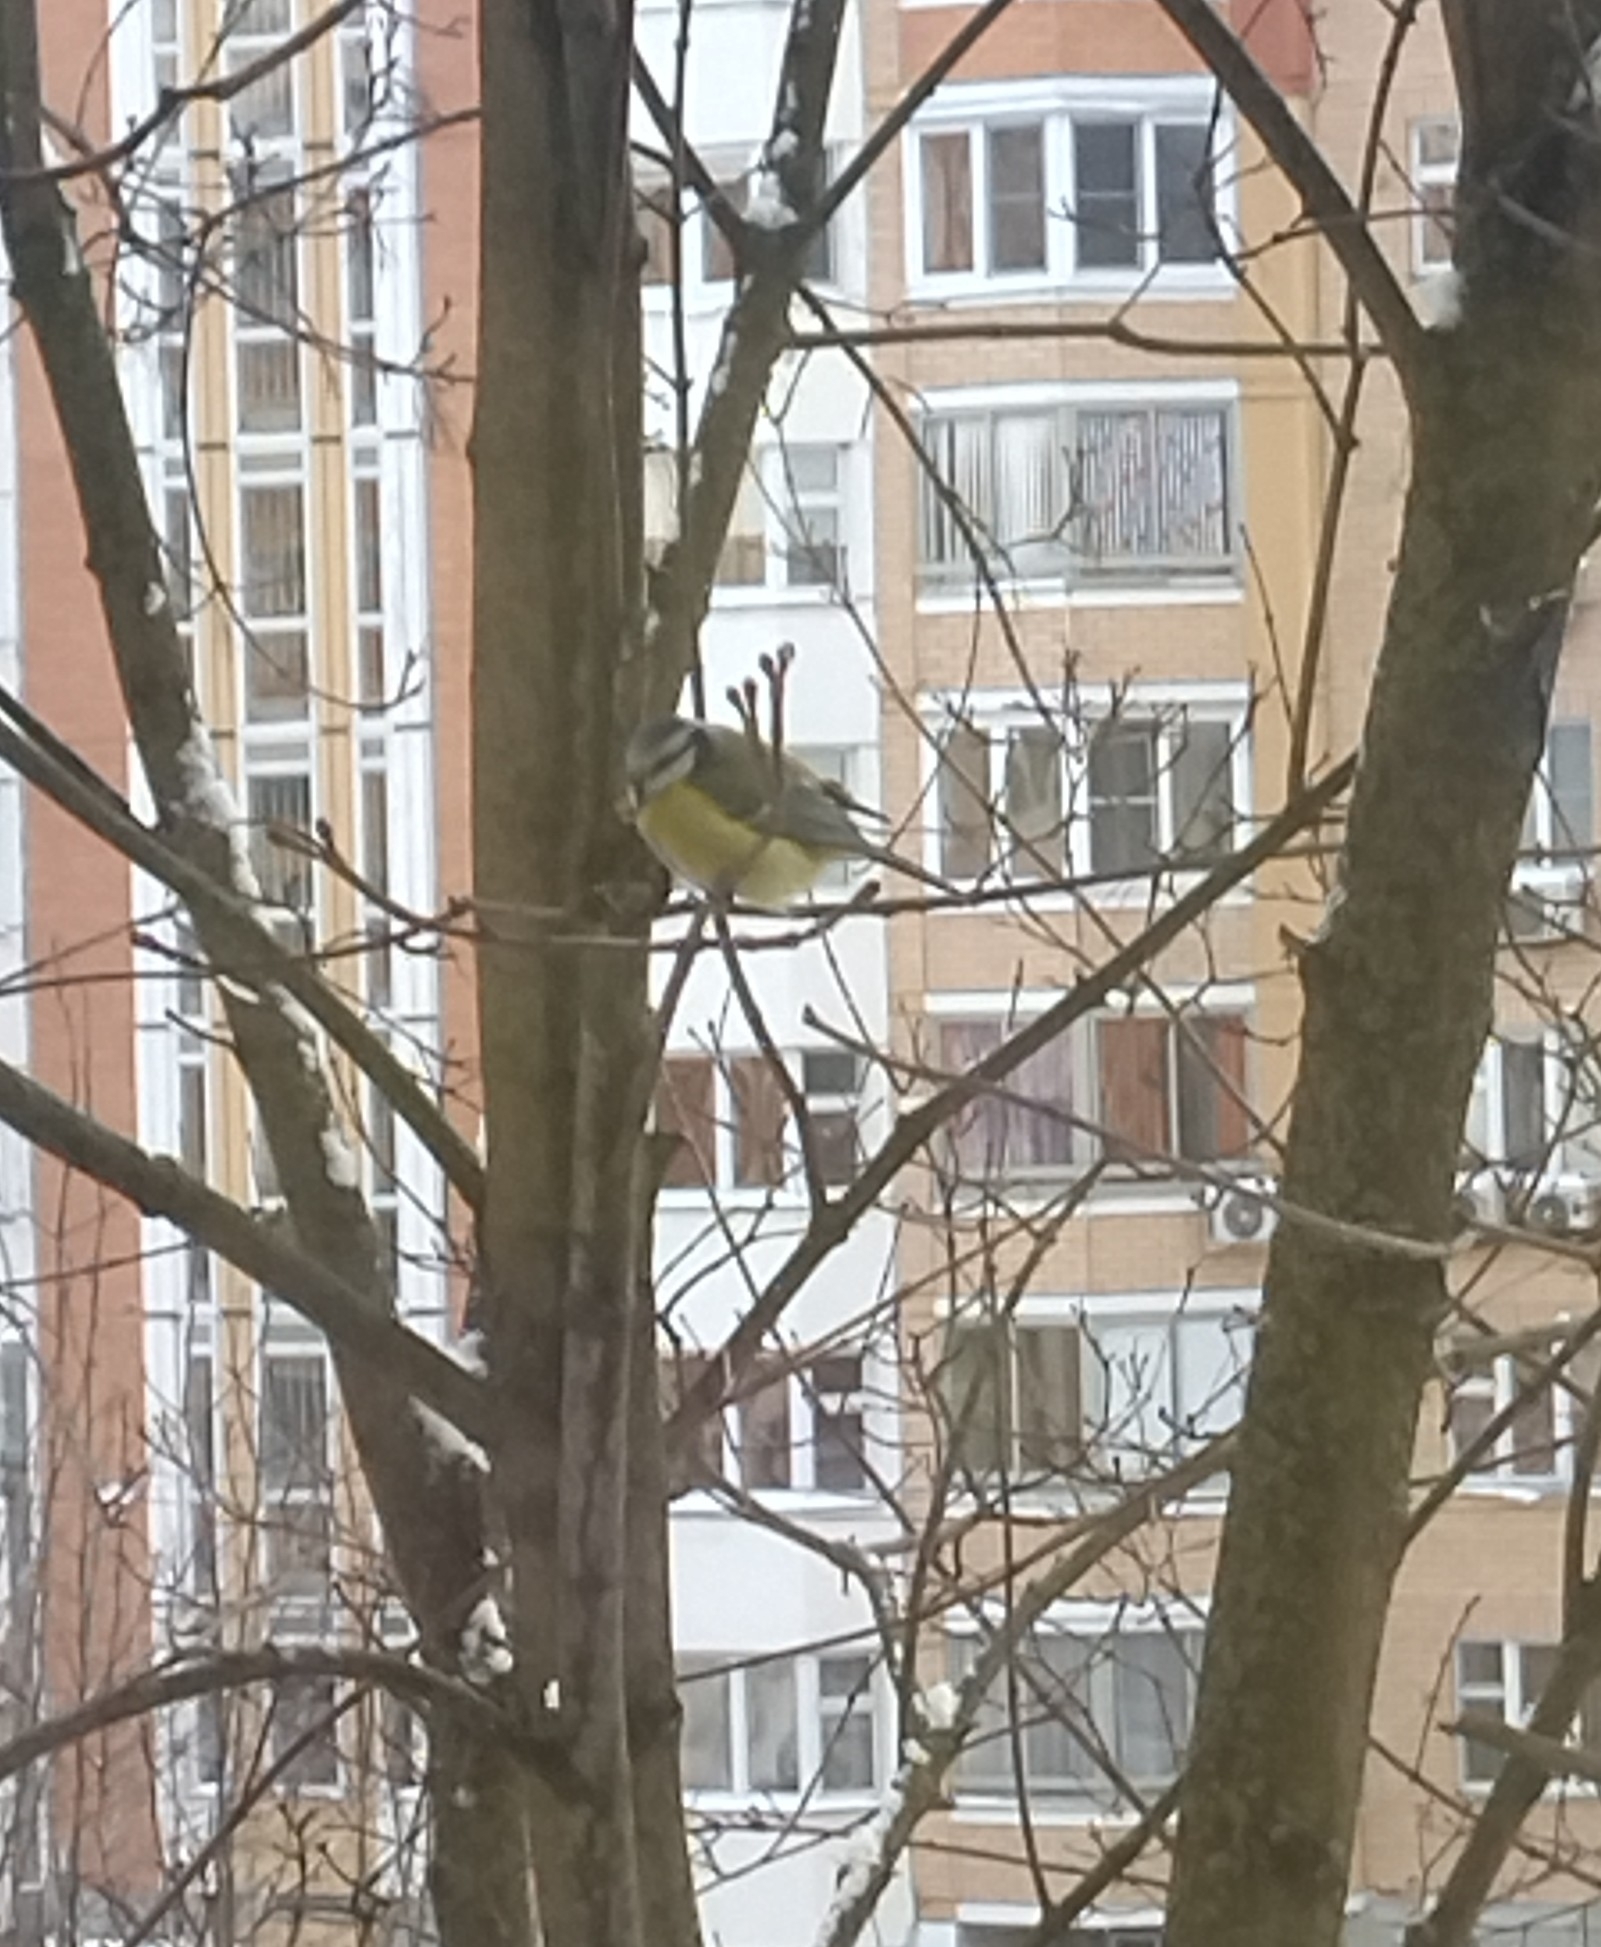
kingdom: Animalia
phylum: Chordata
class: Aves
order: Passeriformes
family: Paridae
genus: Cyanistes
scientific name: Cyanistes caeruleus
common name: Eurasian blue tit
